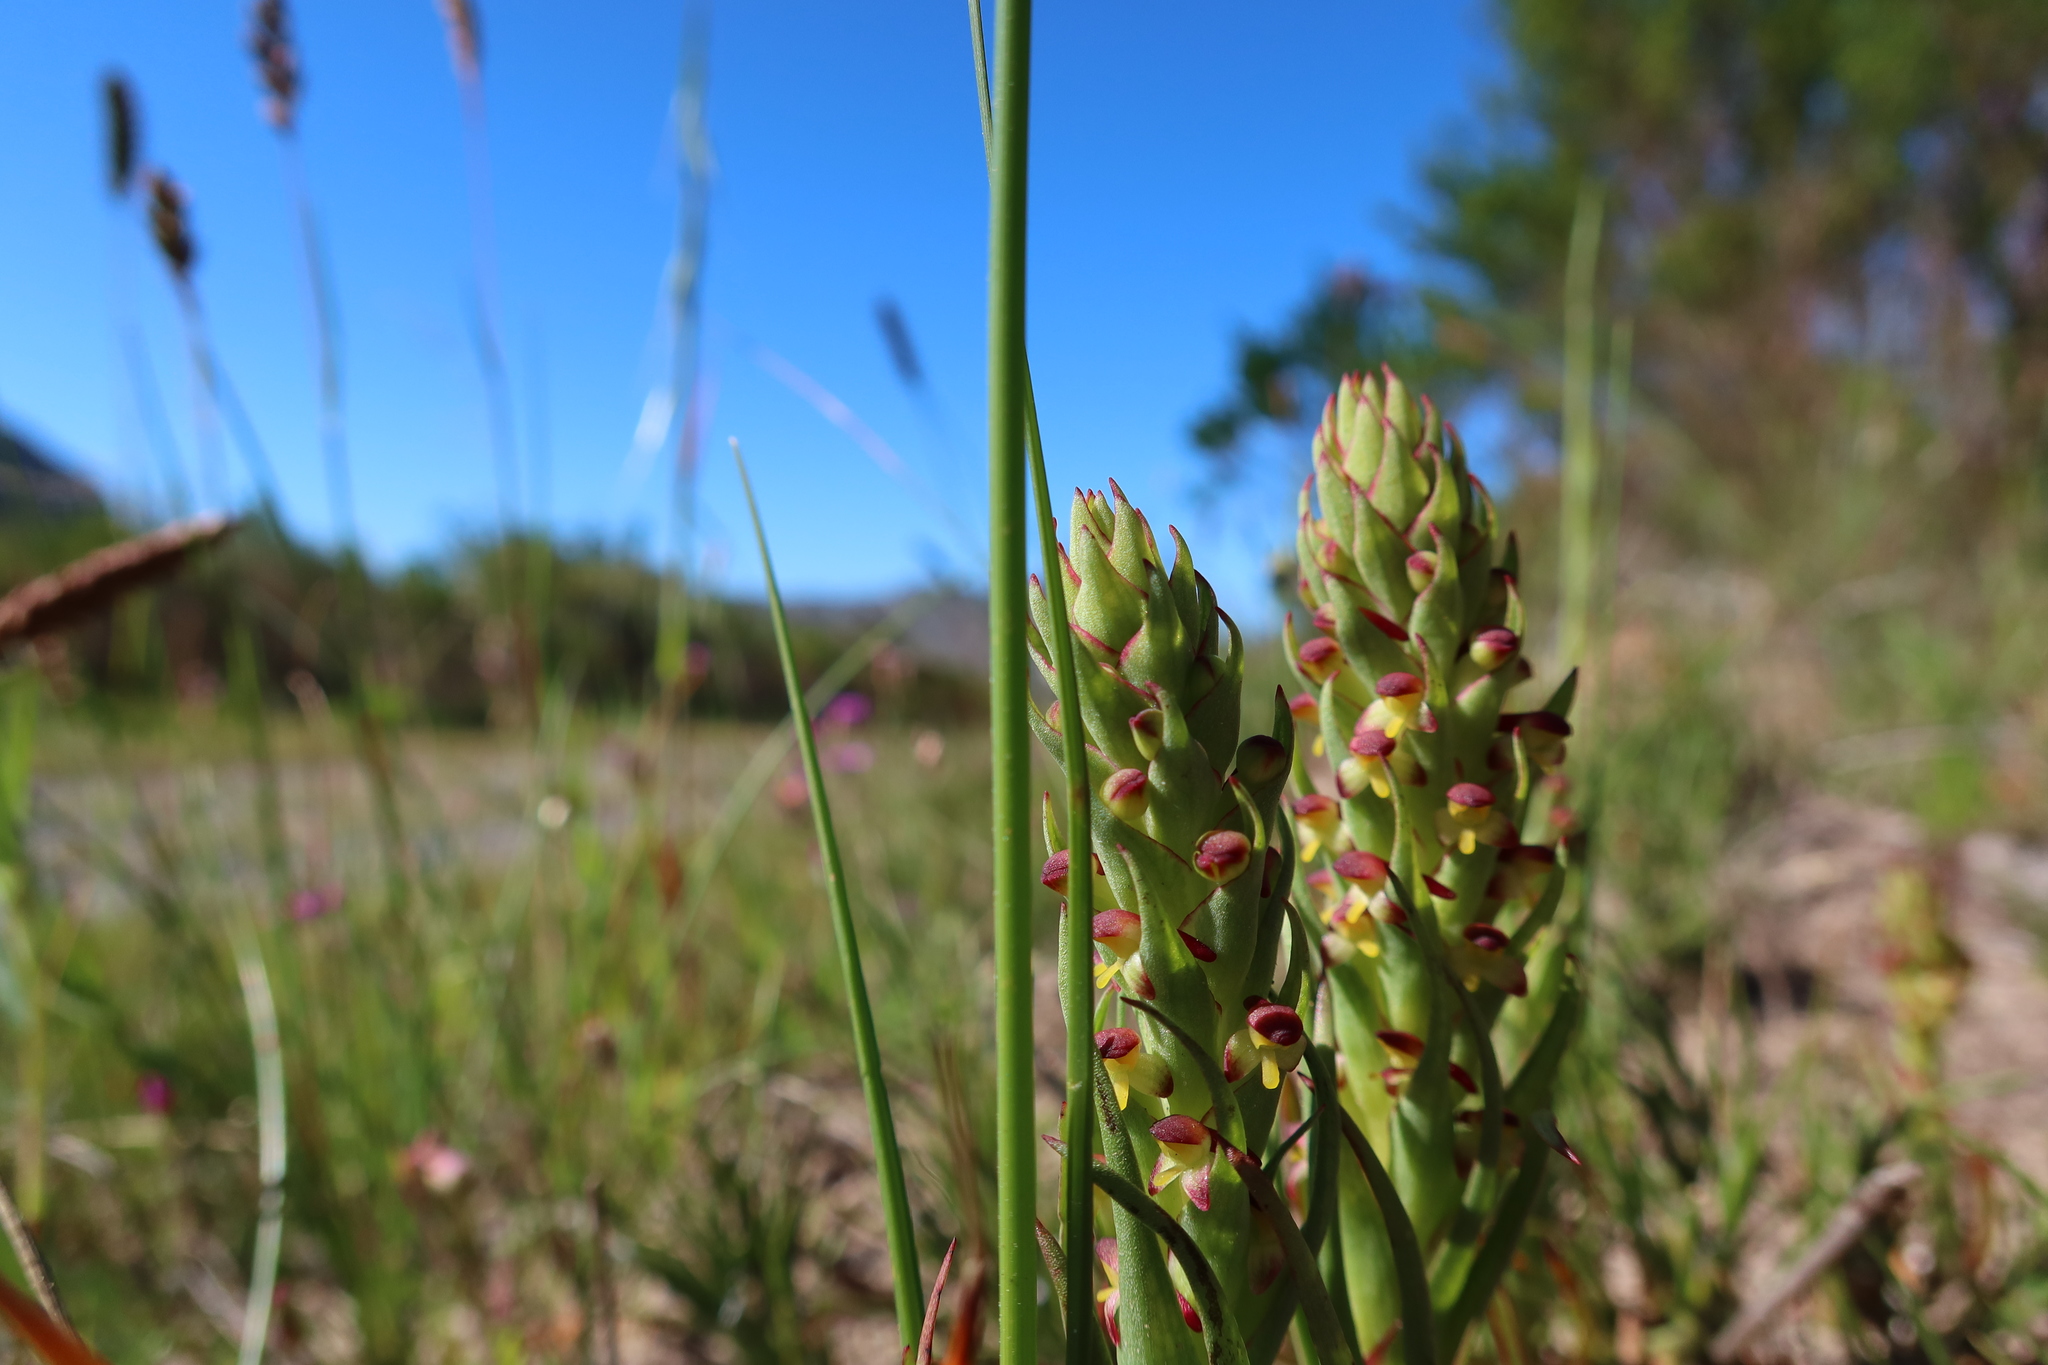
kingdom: Plantae
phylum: Tracheophyta
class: Liliopsida
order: Asparagales
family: Orchidaceae
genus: Disa
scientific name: Disa bracteata
